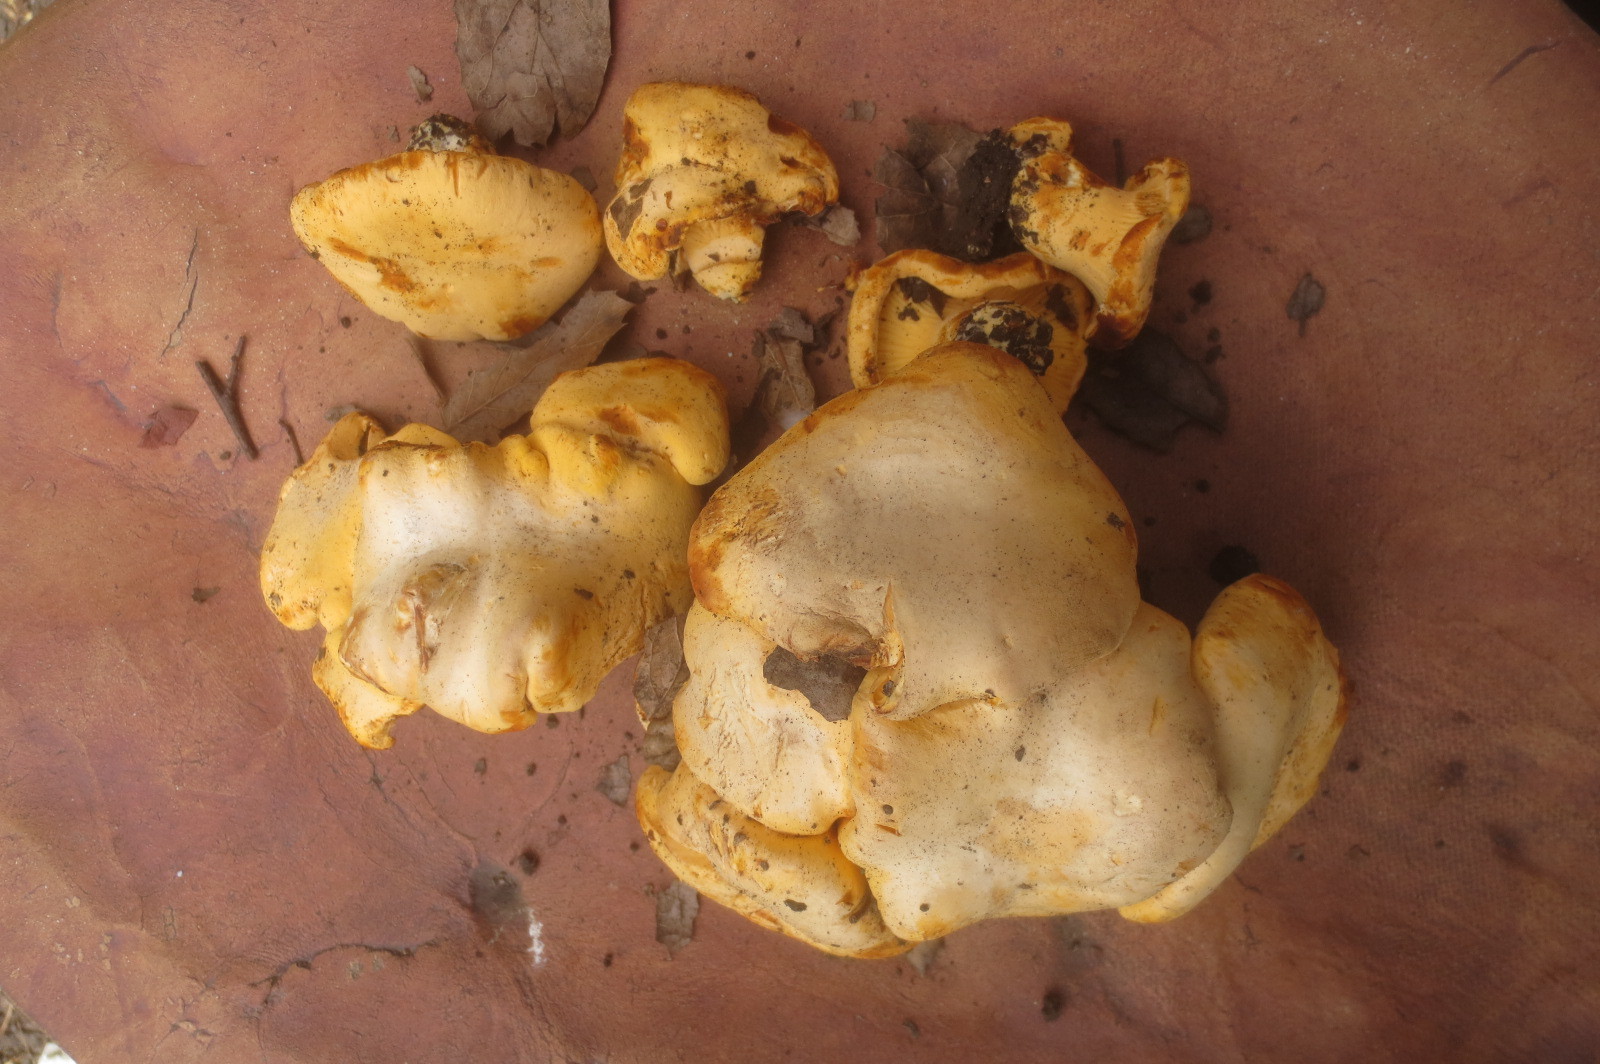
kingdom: Fungi
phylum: Basidiomycota
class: Agaricomycetes
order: Cantharellales
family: Hydnaceae
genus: Cantharellus
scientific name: Cantharellus californicus
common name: California golden chanterelle
